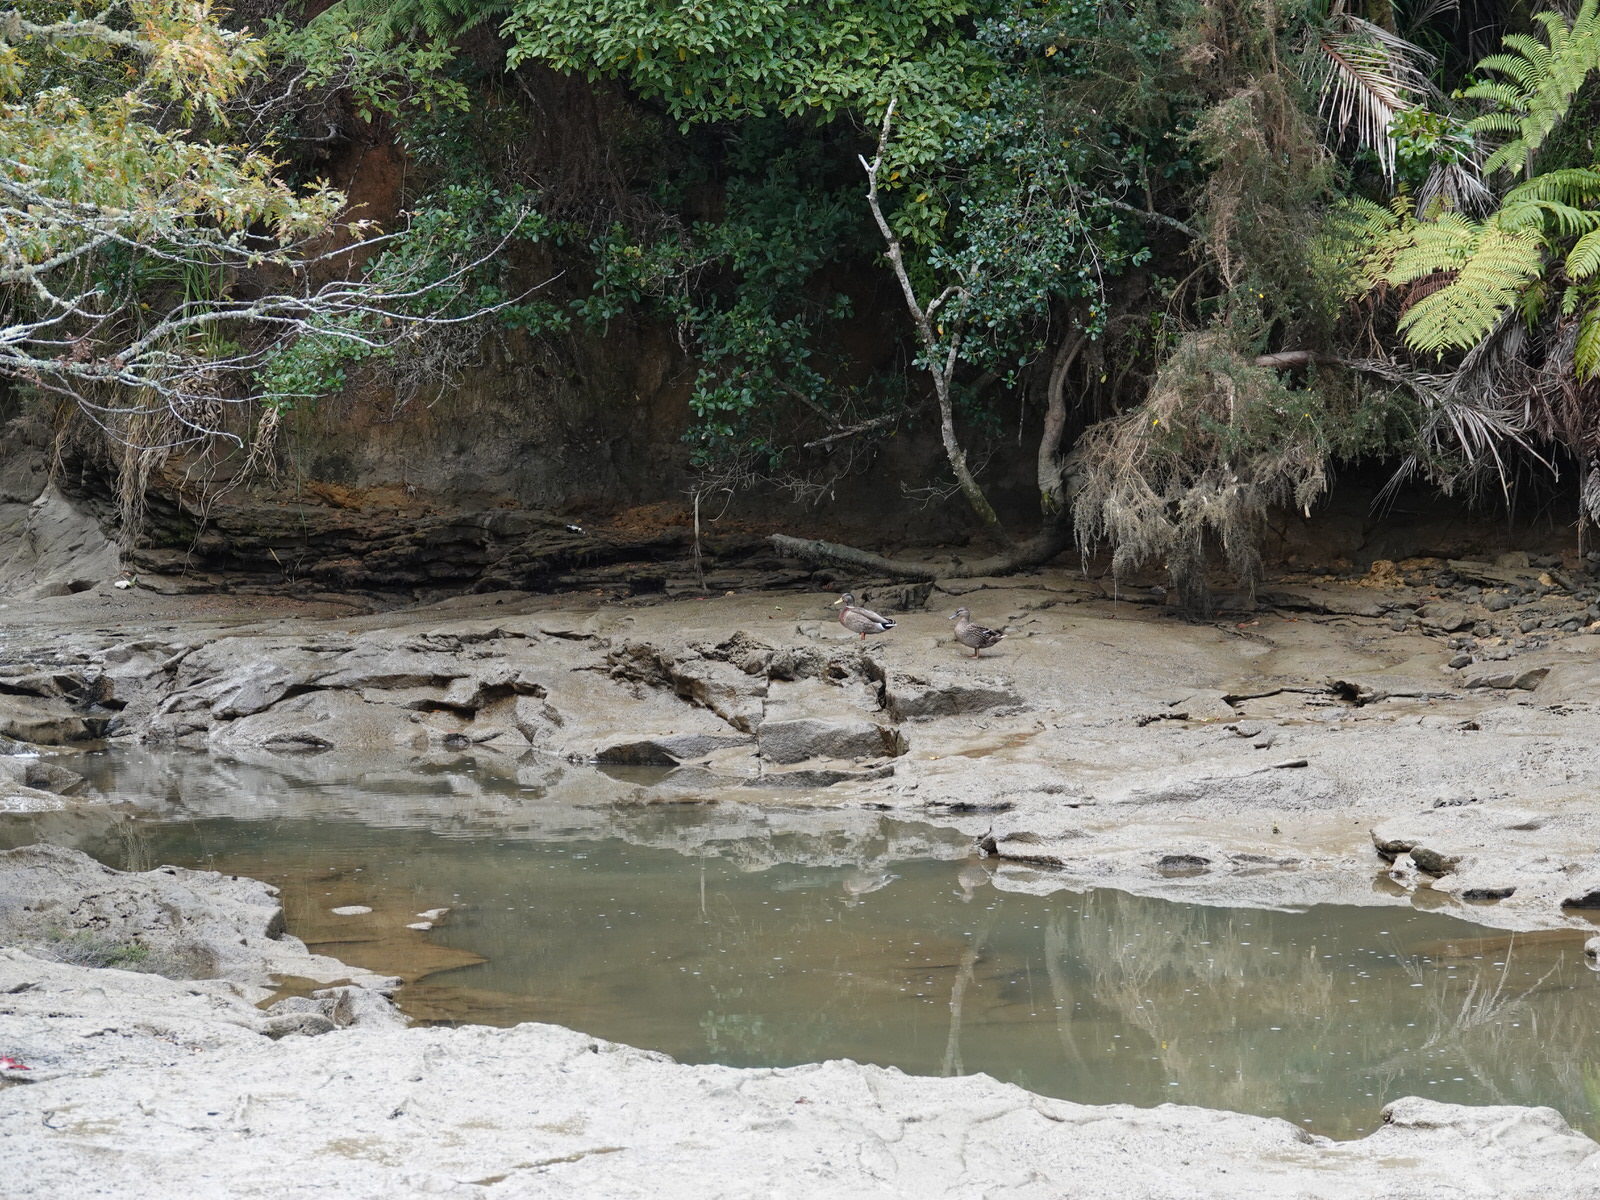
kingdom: Animalia
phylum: Chordata
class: Aves
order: Anseriformes
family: Anatidae
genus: Anas
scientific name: Anas
